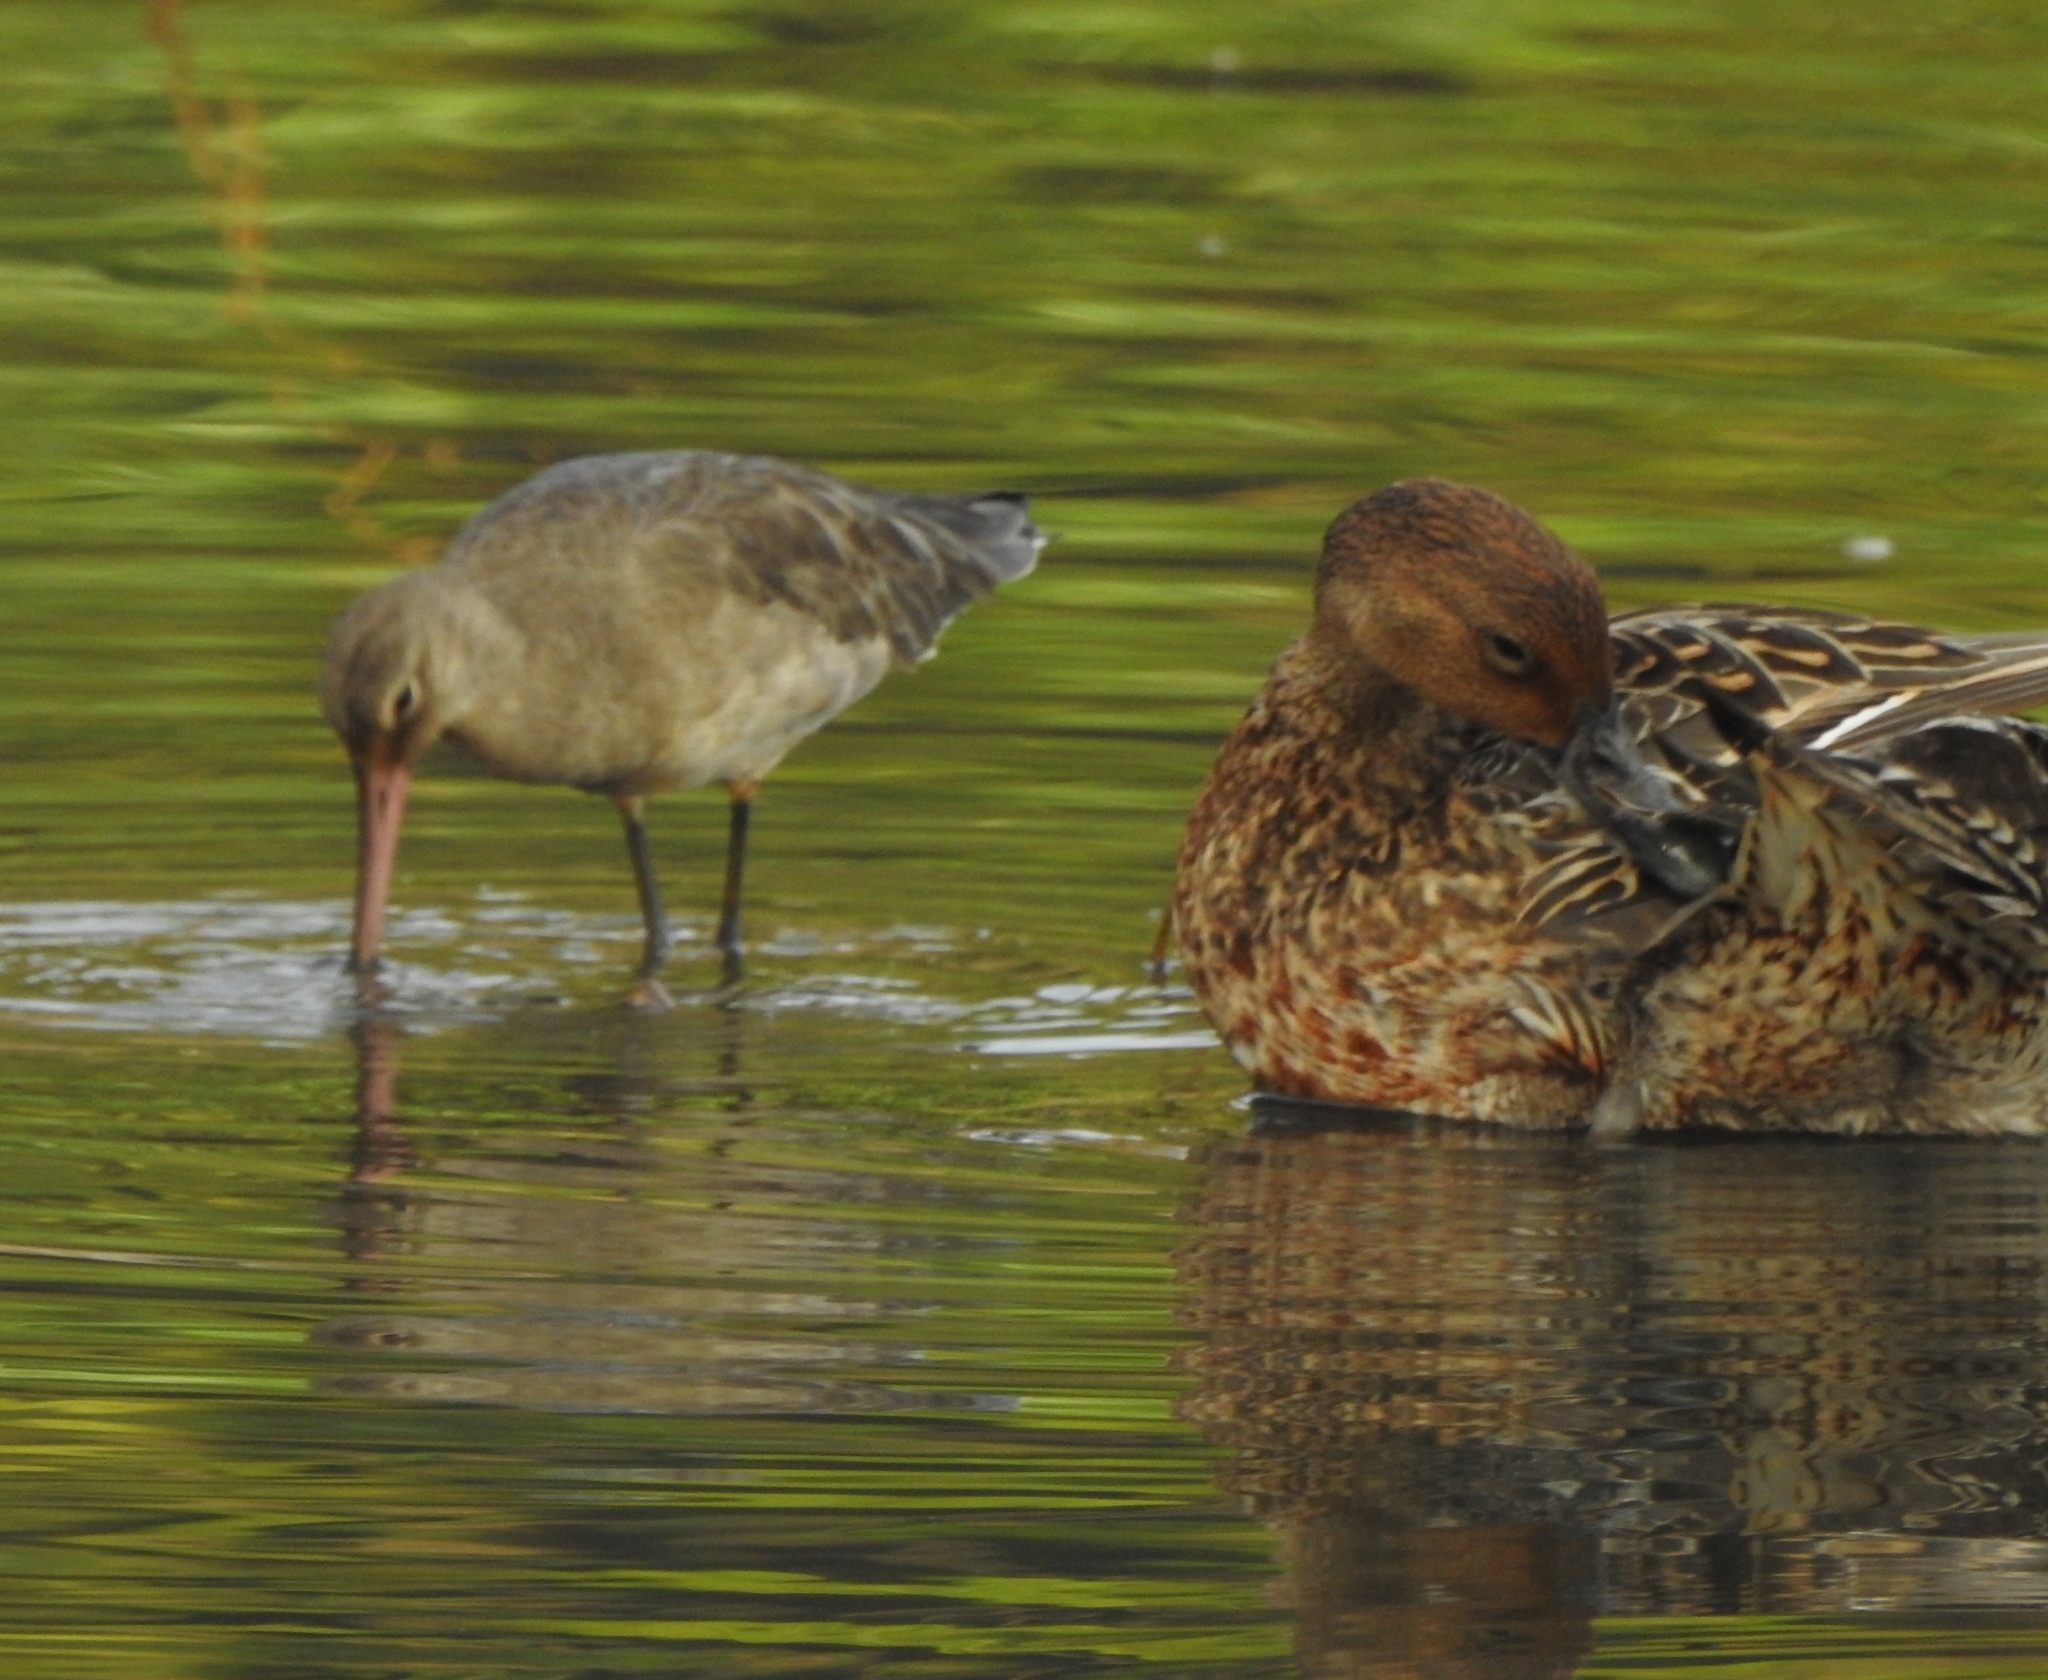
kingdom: Animalia
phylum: Chordata
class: Aves
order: Charadriiformes
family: Scolopacidae
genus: Limosa
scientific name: Limosa limosa
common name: Black-tailed godwit
